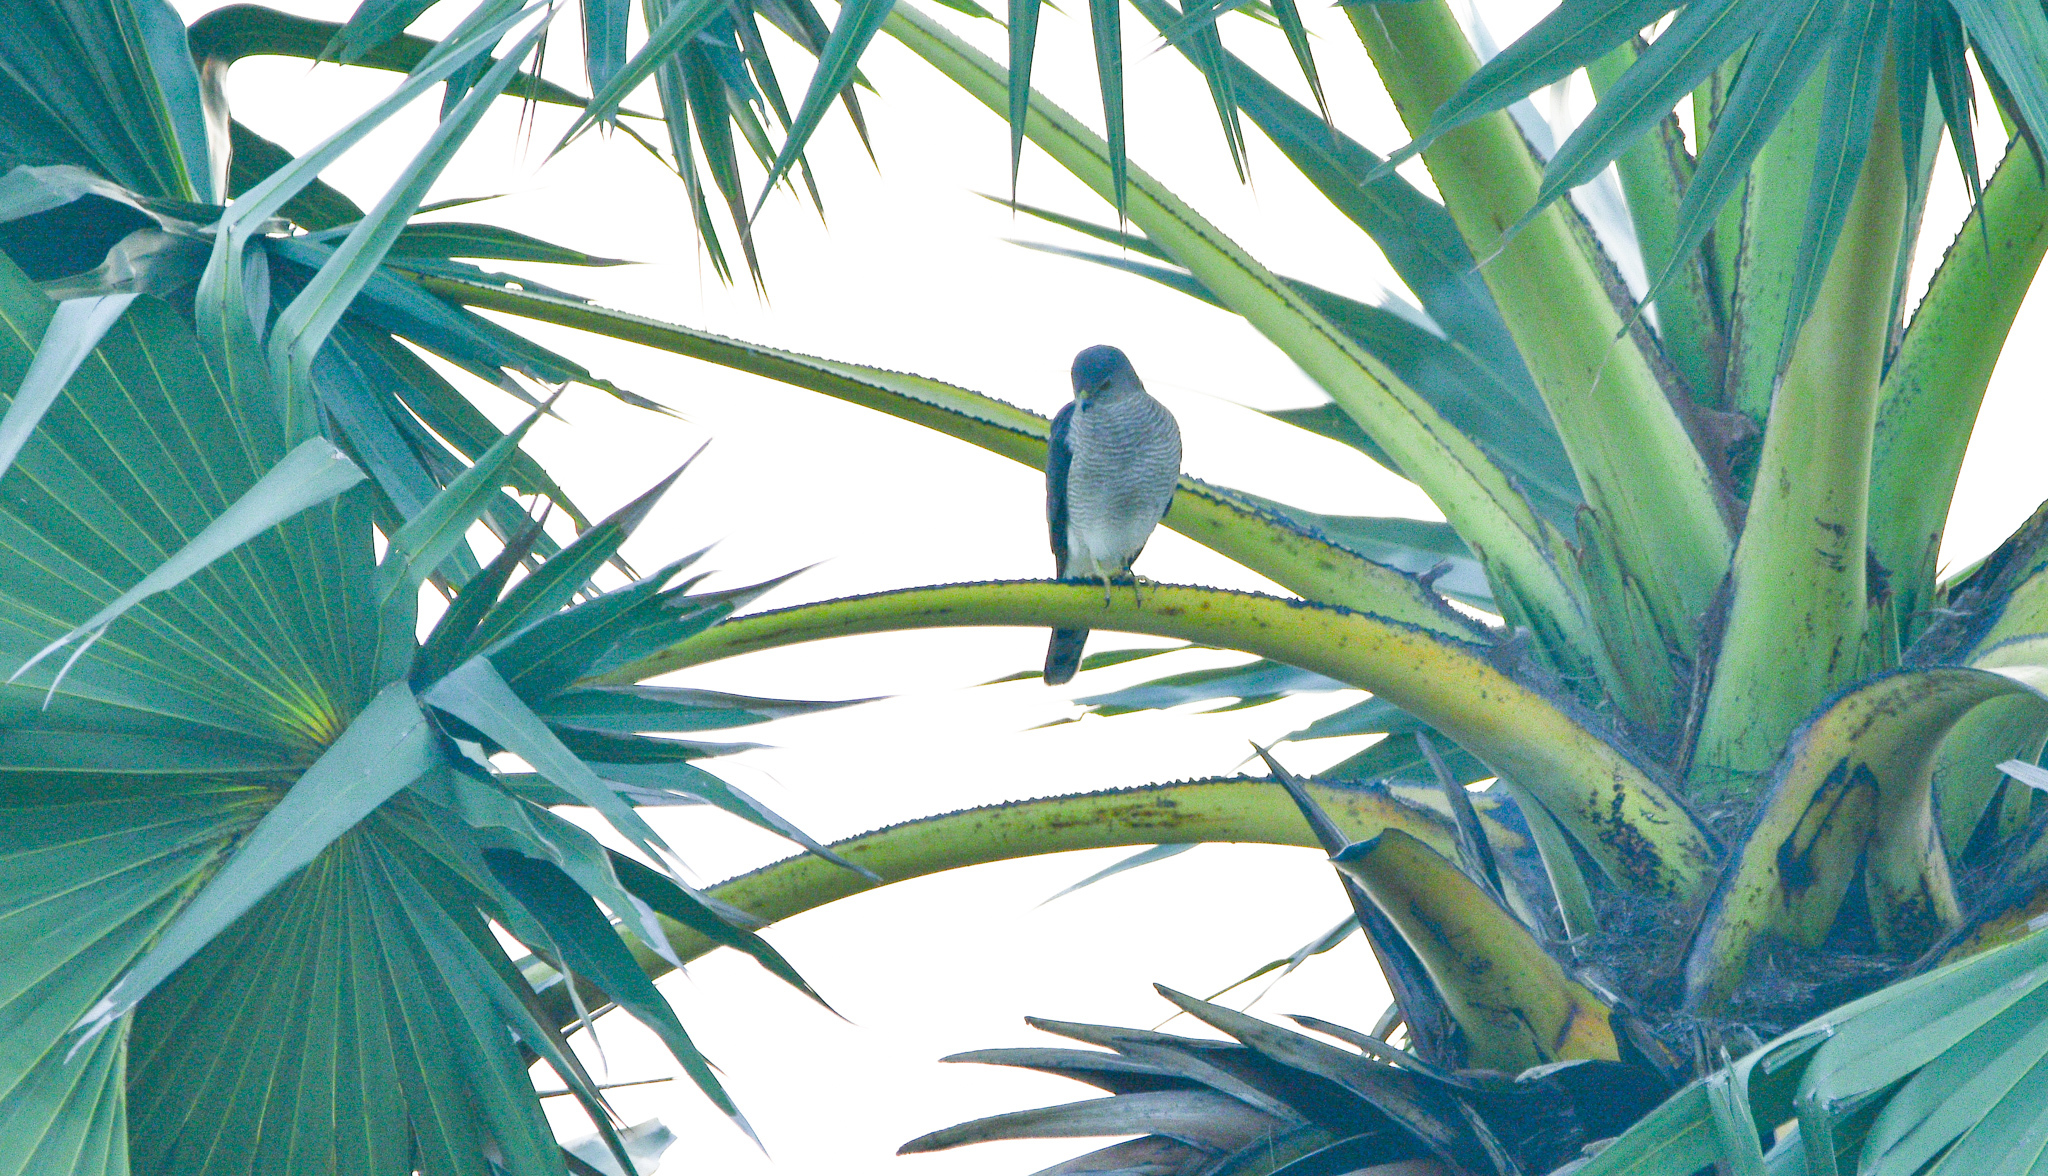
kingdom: Animalia
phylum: Chordata
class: Aves
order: Accipitriformes
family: Accipitridae
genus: Accipiter
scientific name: Accipiter badius
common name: Shikra
